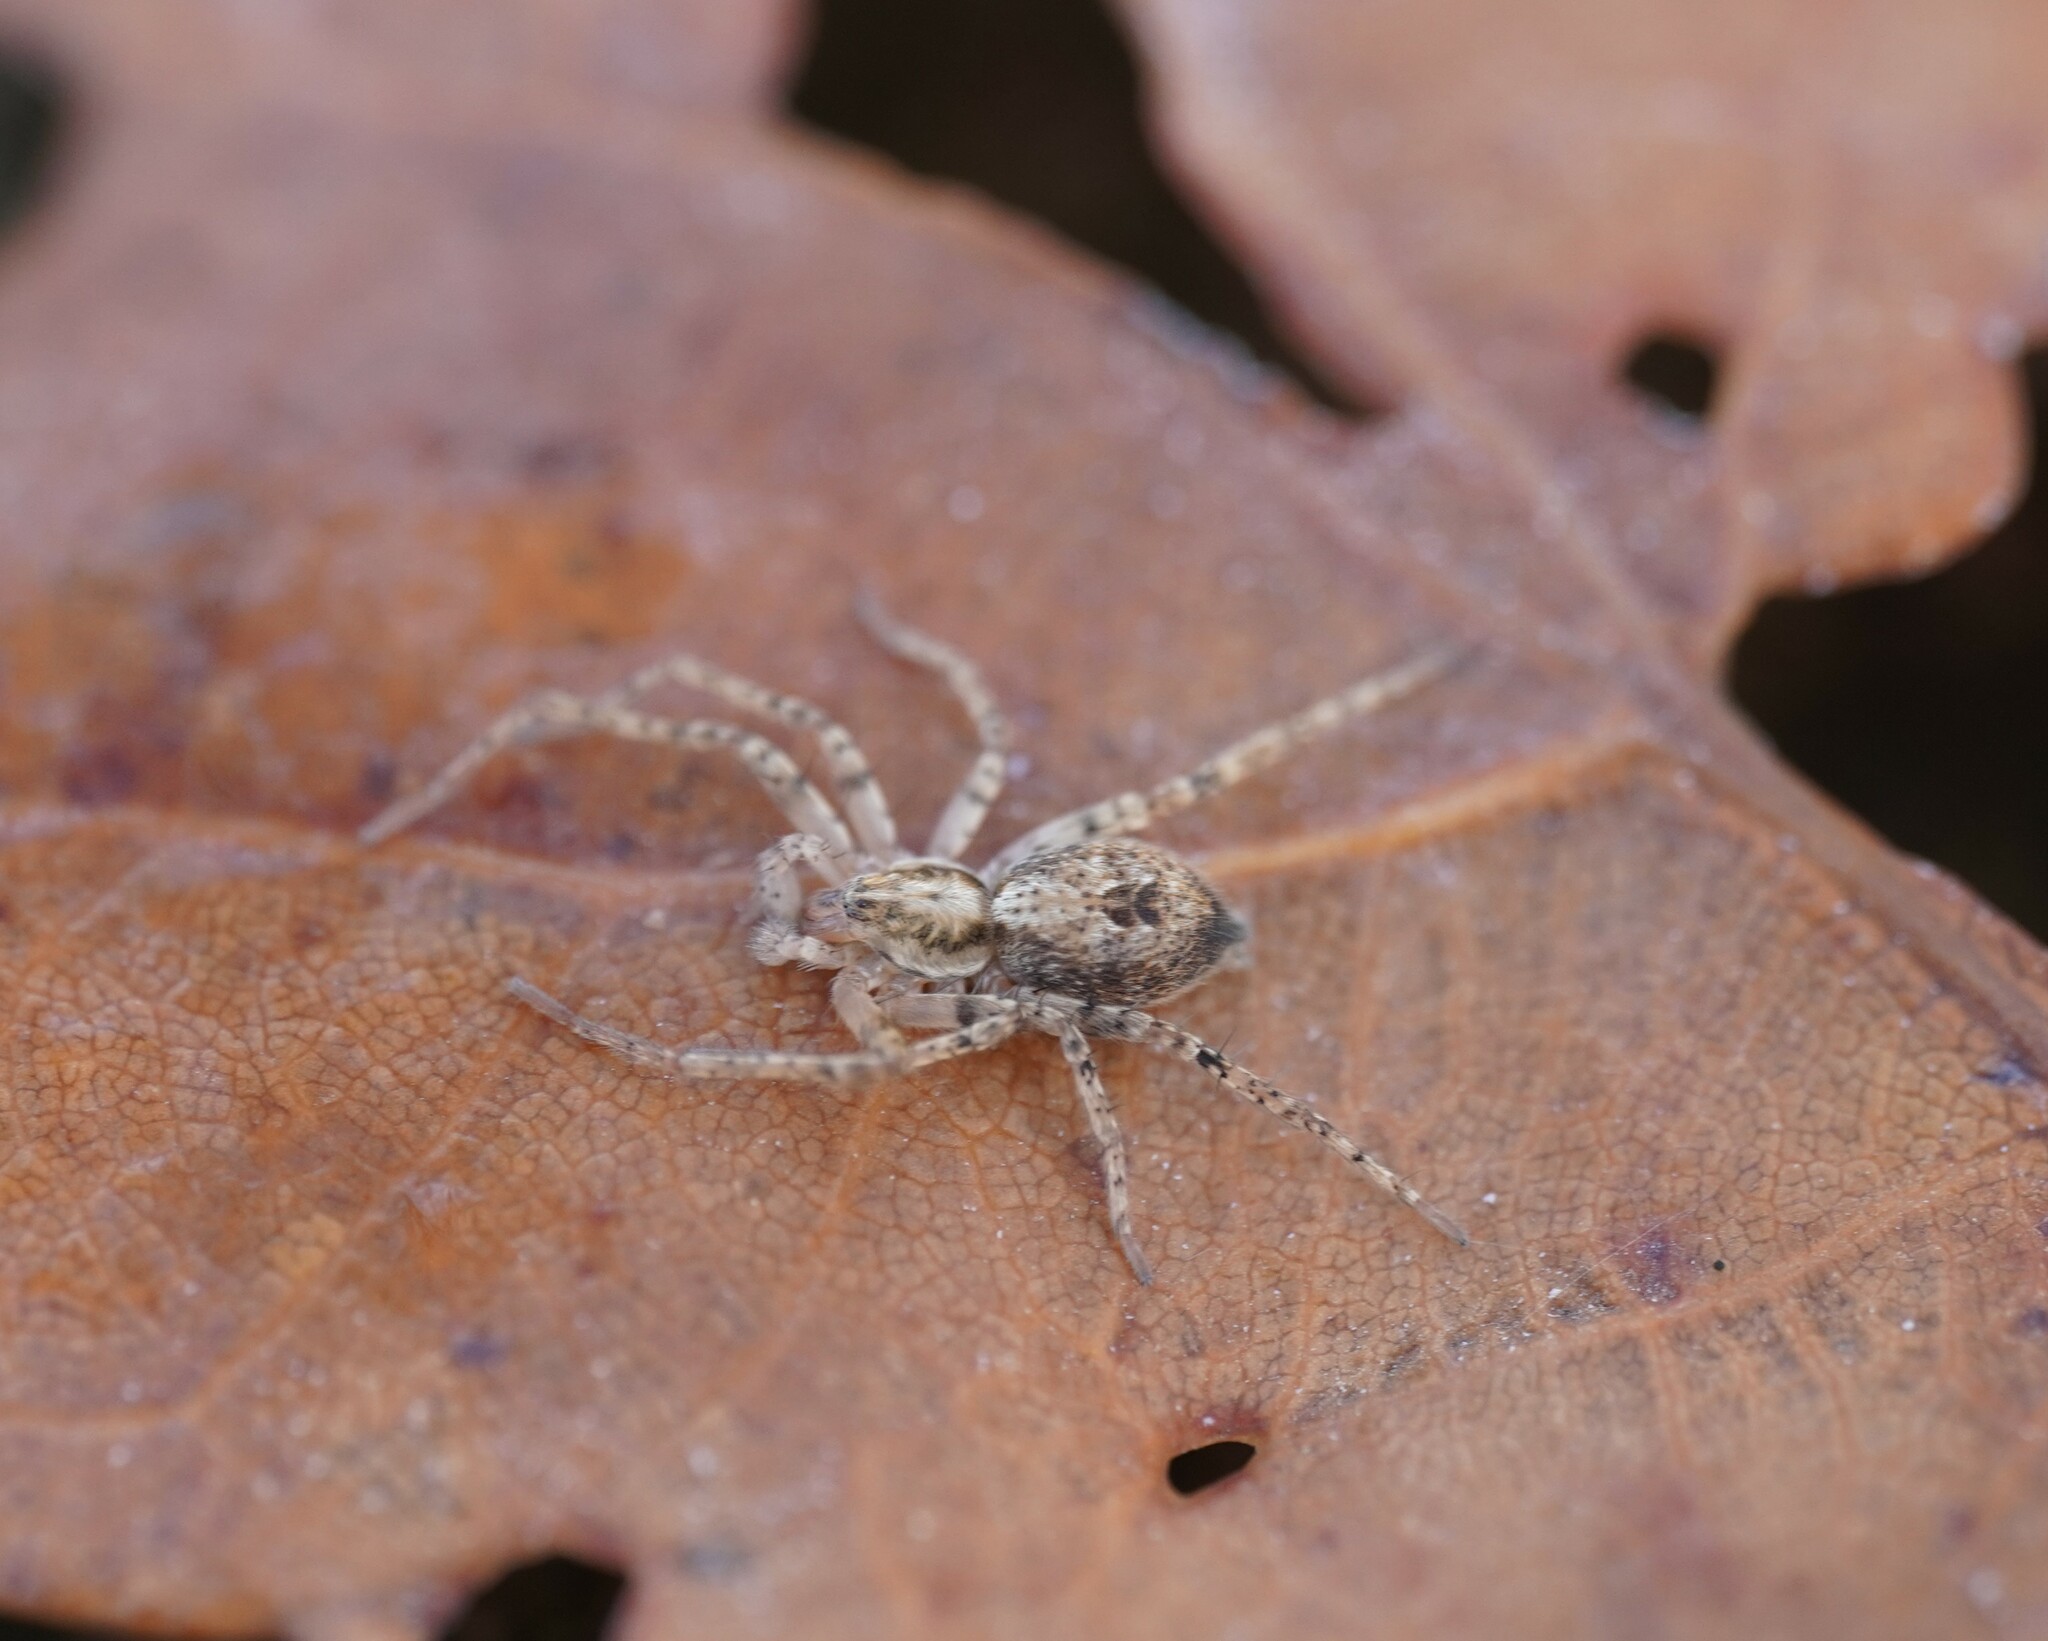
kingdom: Animalia
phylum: Arthropoda
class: Arachnida
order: Araneae
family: Anyphaenidae
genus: Anyphaena
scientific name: Anyphaena accentuata
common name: Buzzing spider
